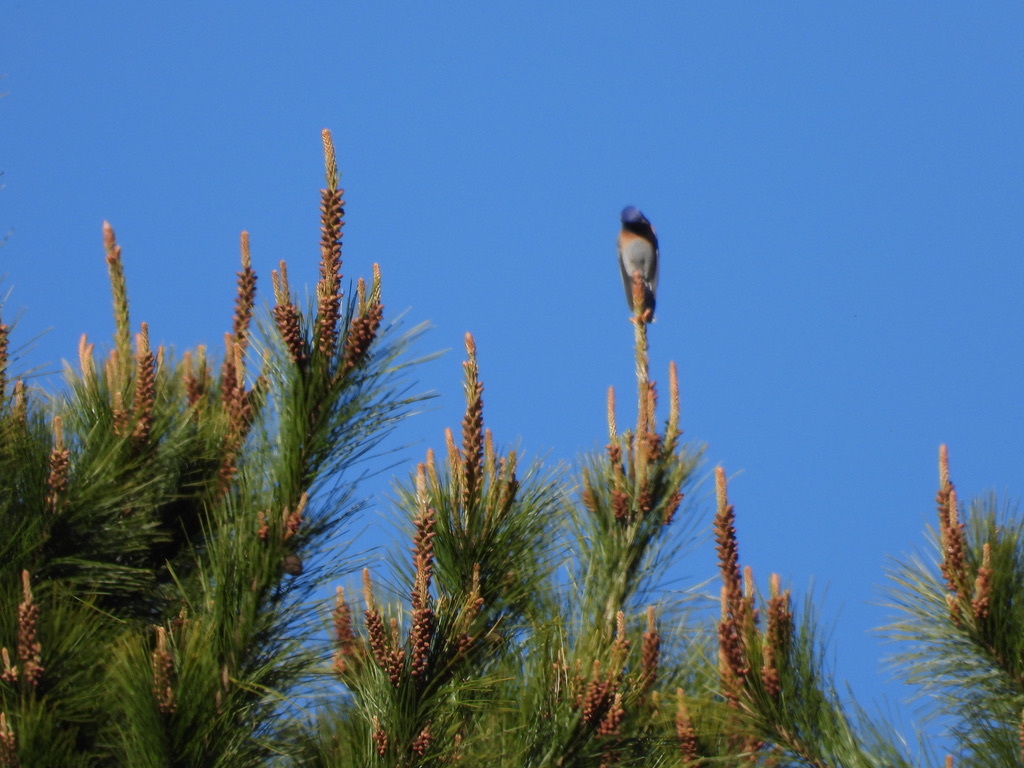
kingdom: Animalia
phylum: Chordata
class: Aves
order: Passeriformes
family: Turdidae
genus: Sialia
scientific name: Sialia mexicana
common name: Western bluebird
